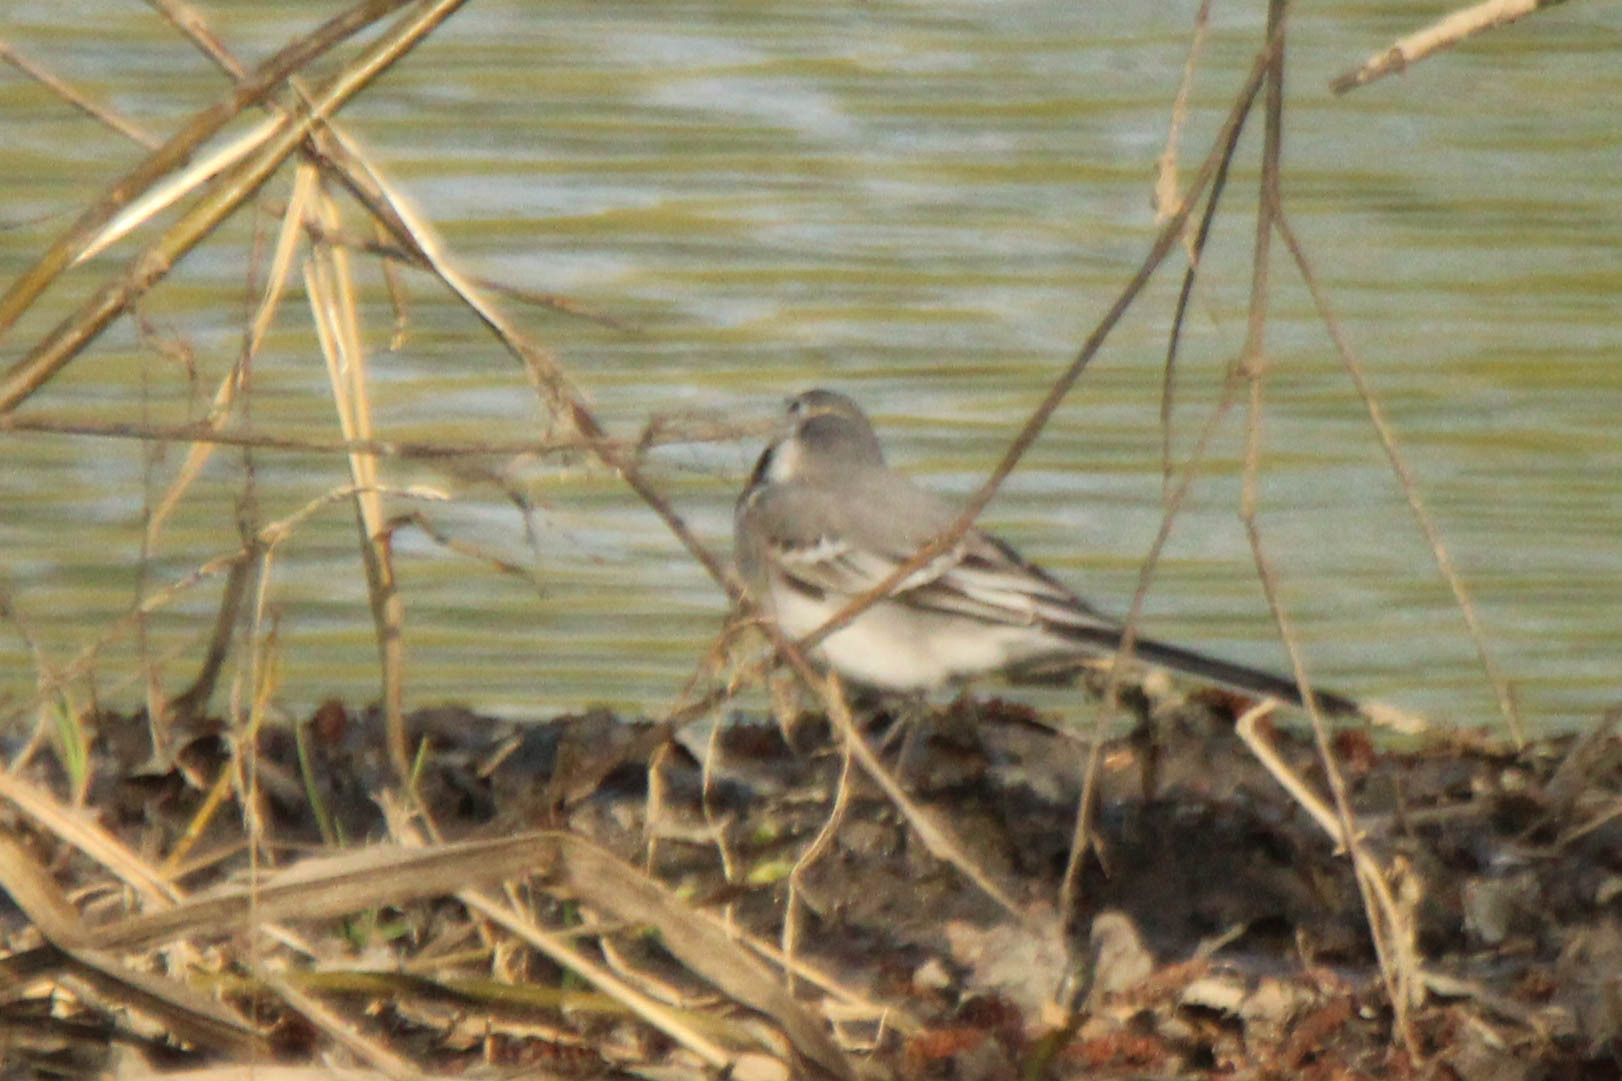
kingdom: Animalia
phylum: Chordata
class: Aves
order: Passeriformes
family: Motacillidae
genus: Motacilla
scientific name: Motacilla alba
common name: White wagtail
